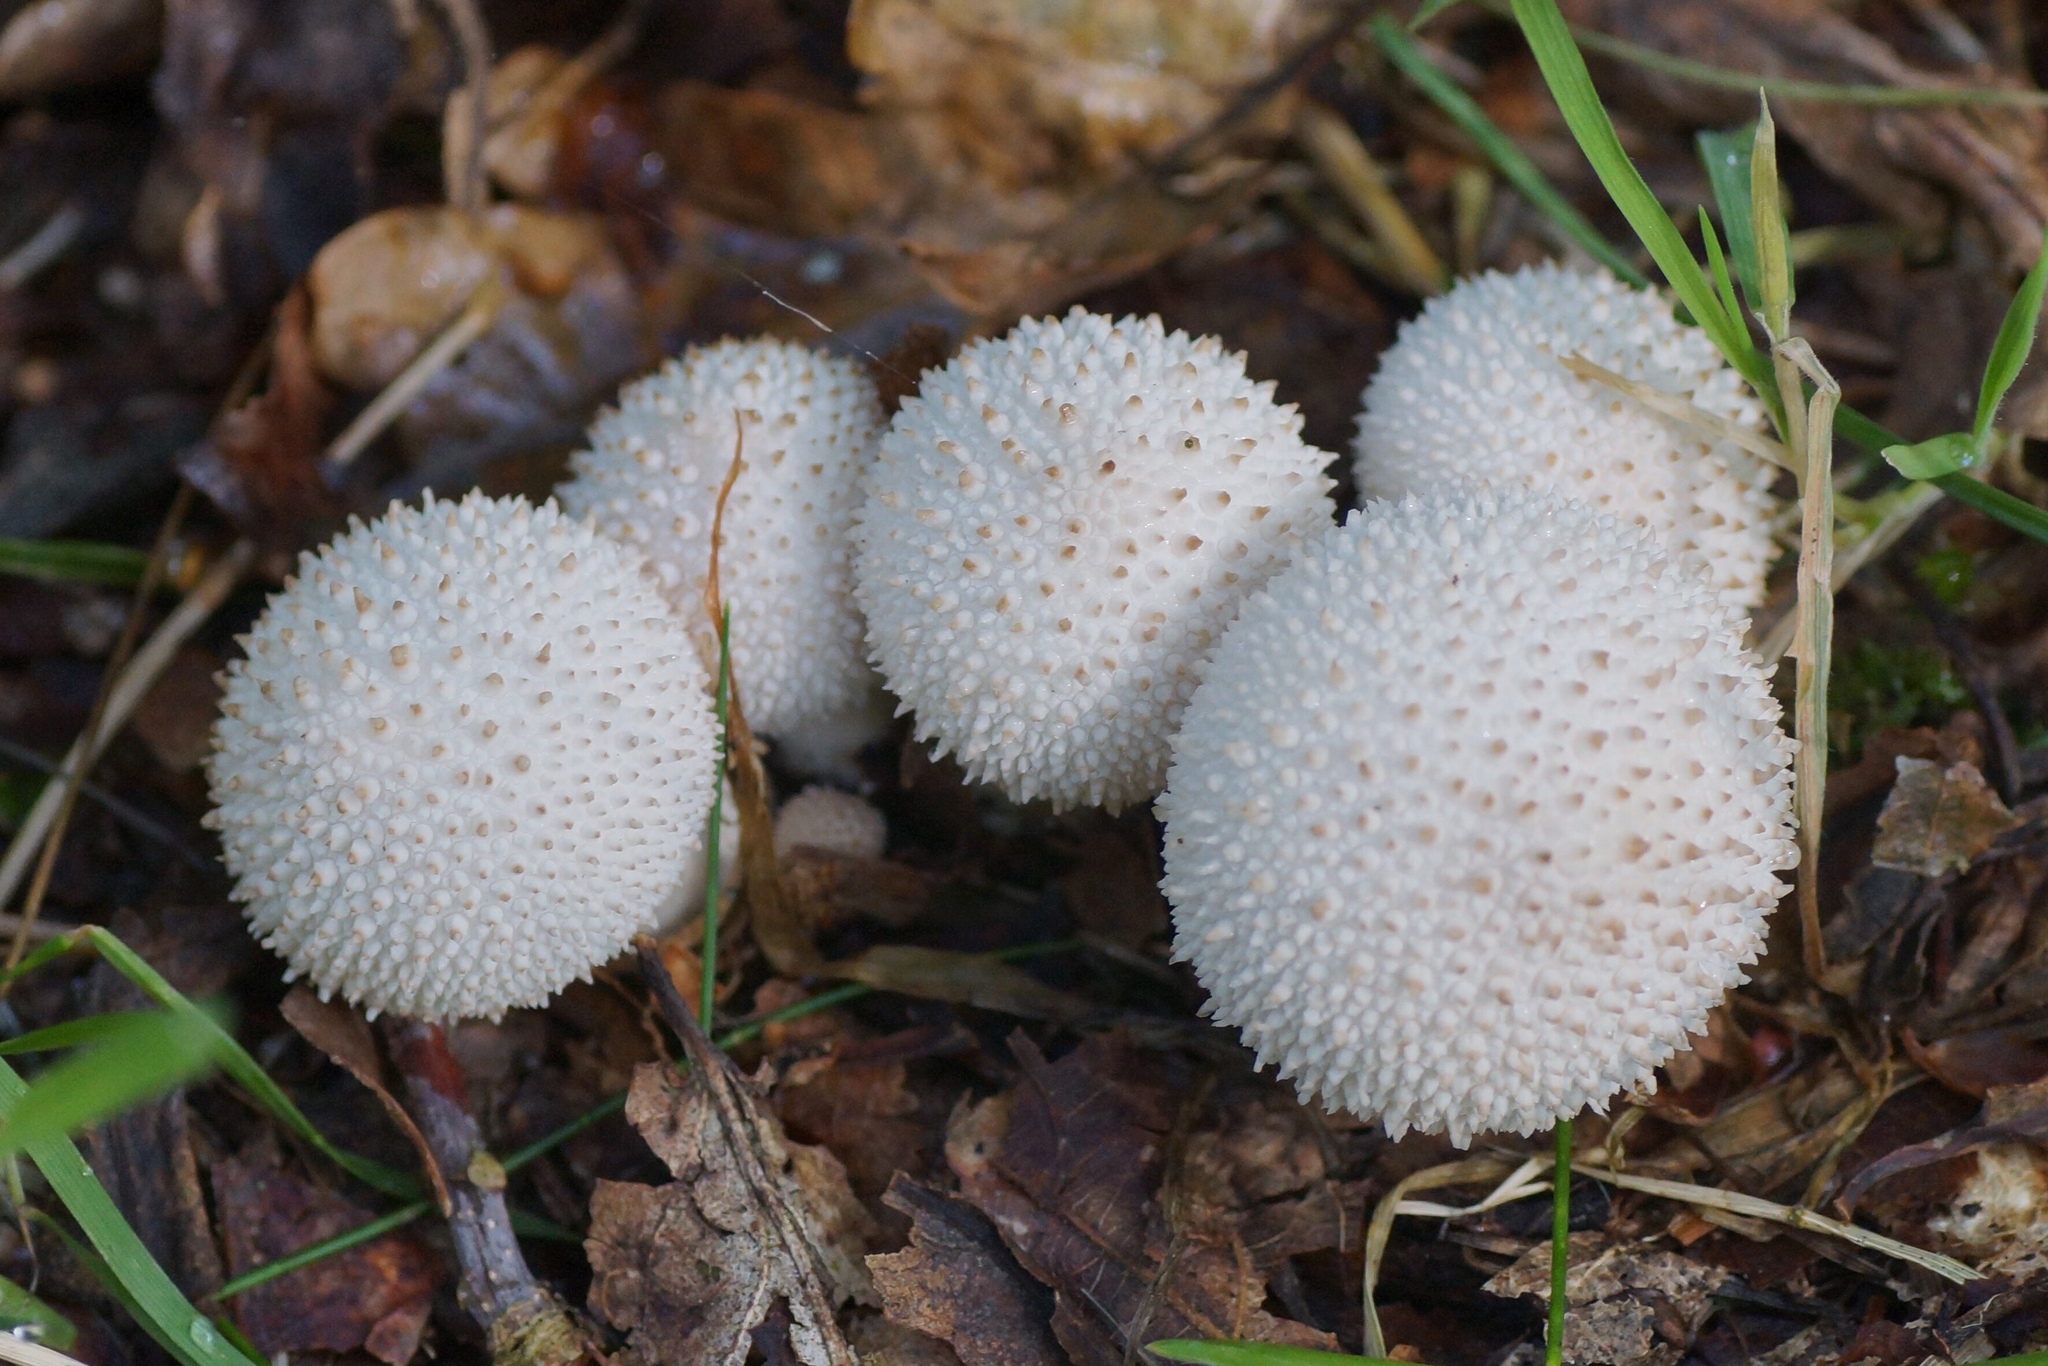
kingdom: Fungi
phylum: Basidiomycota
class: Agaricomycetes
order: Agaricales
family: Lycoperdaceae
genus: Lycoperdon
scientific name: Lycoperdon perlatum
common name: Common puffball
